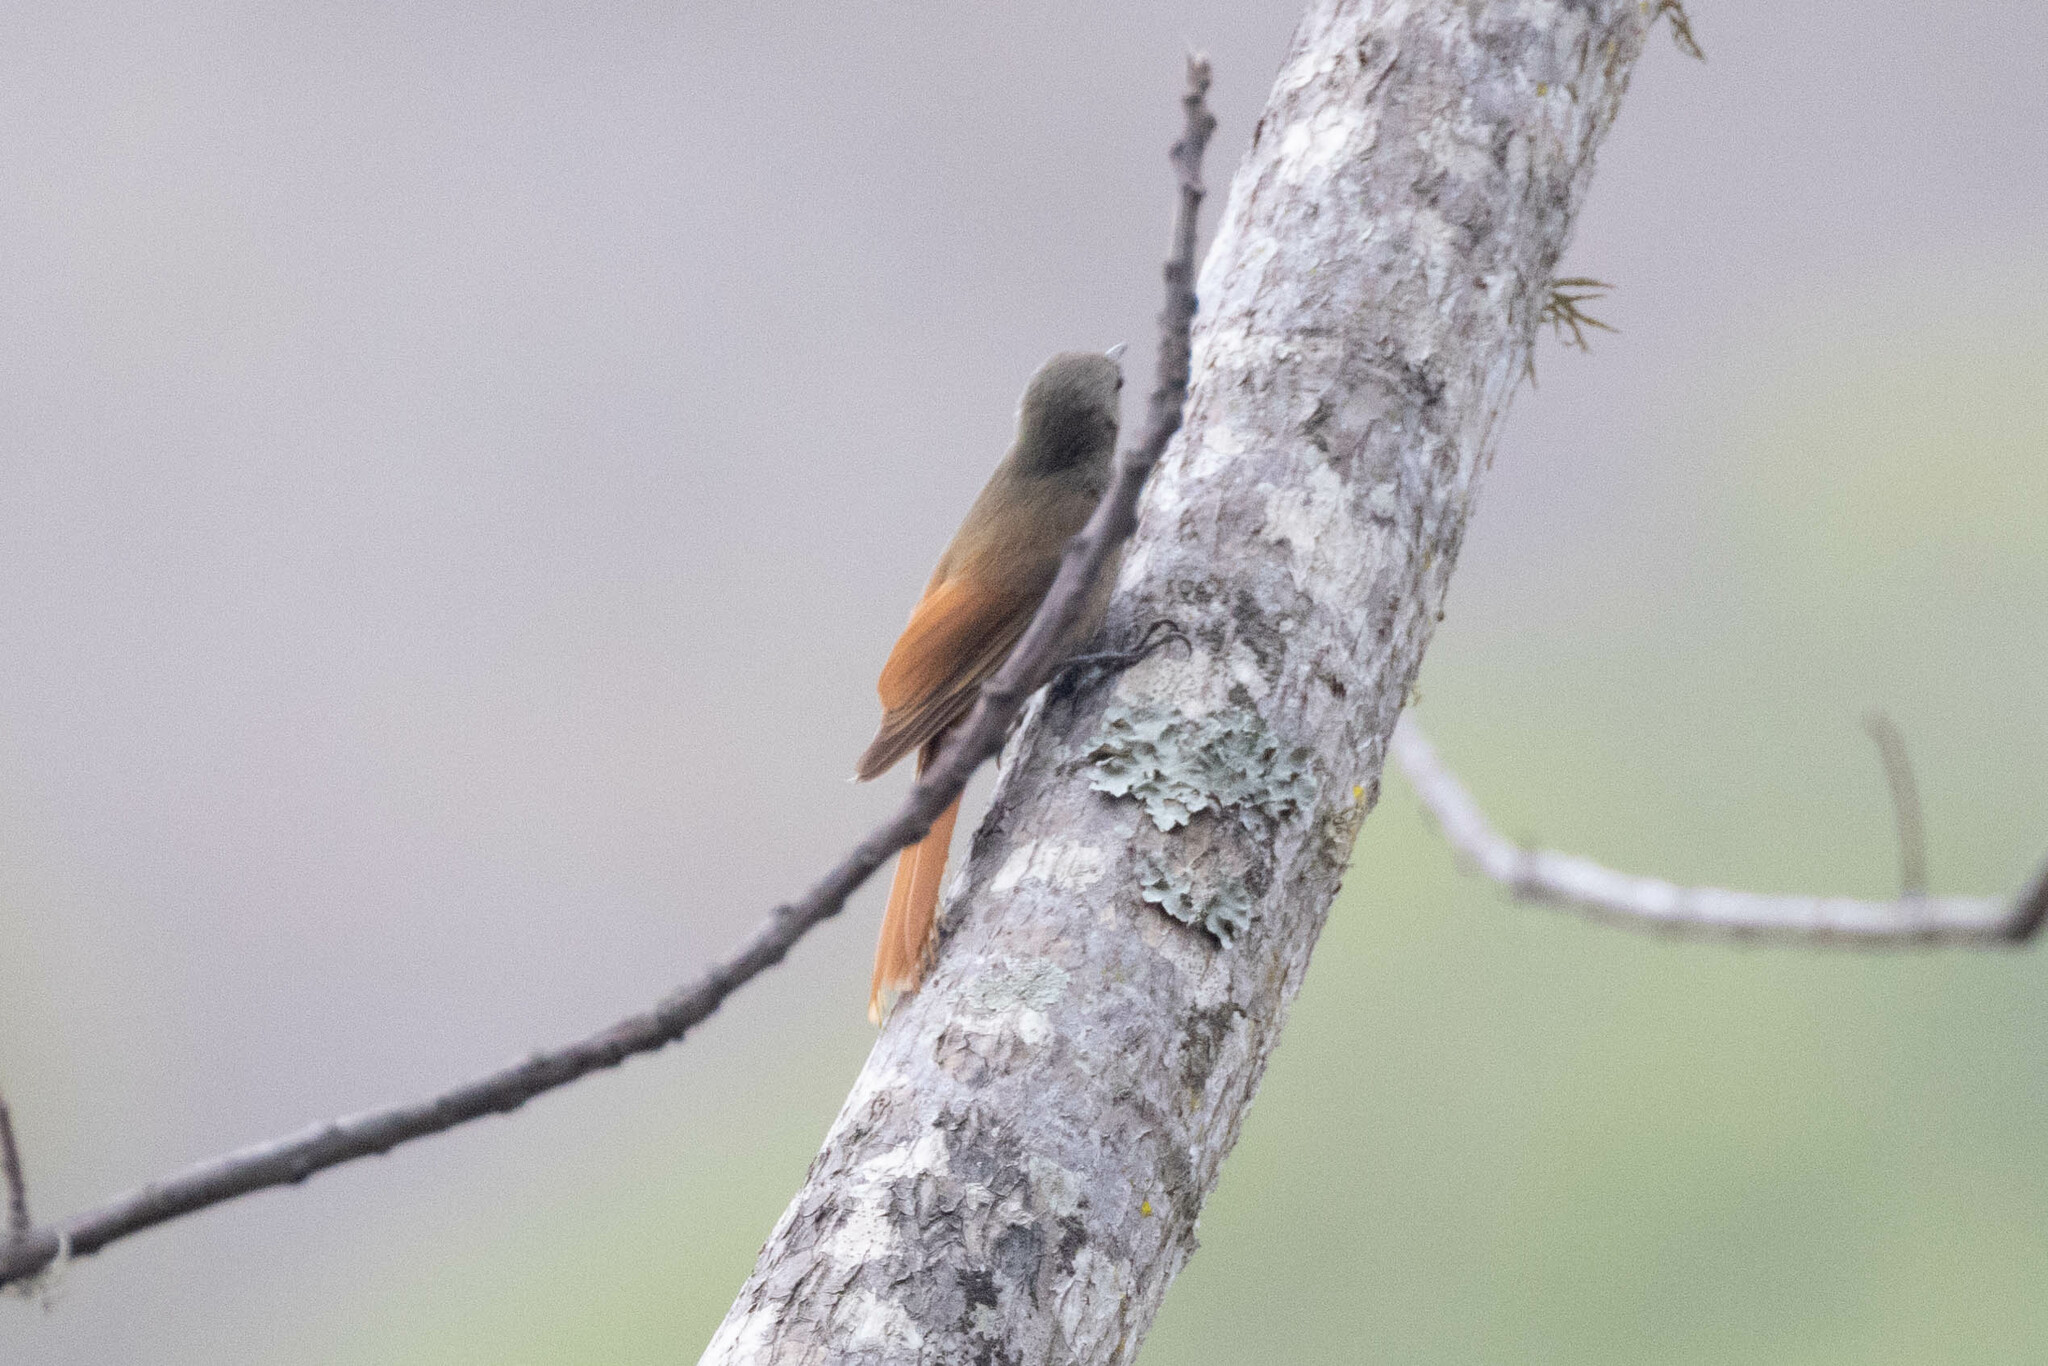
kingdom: Animalia
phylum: Chordata
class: Aves
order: Passeriformes
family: Furnariidae
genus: Sittasomus
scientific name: Sittasomus griseicapillus
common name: Olivaceous woodcreeper
